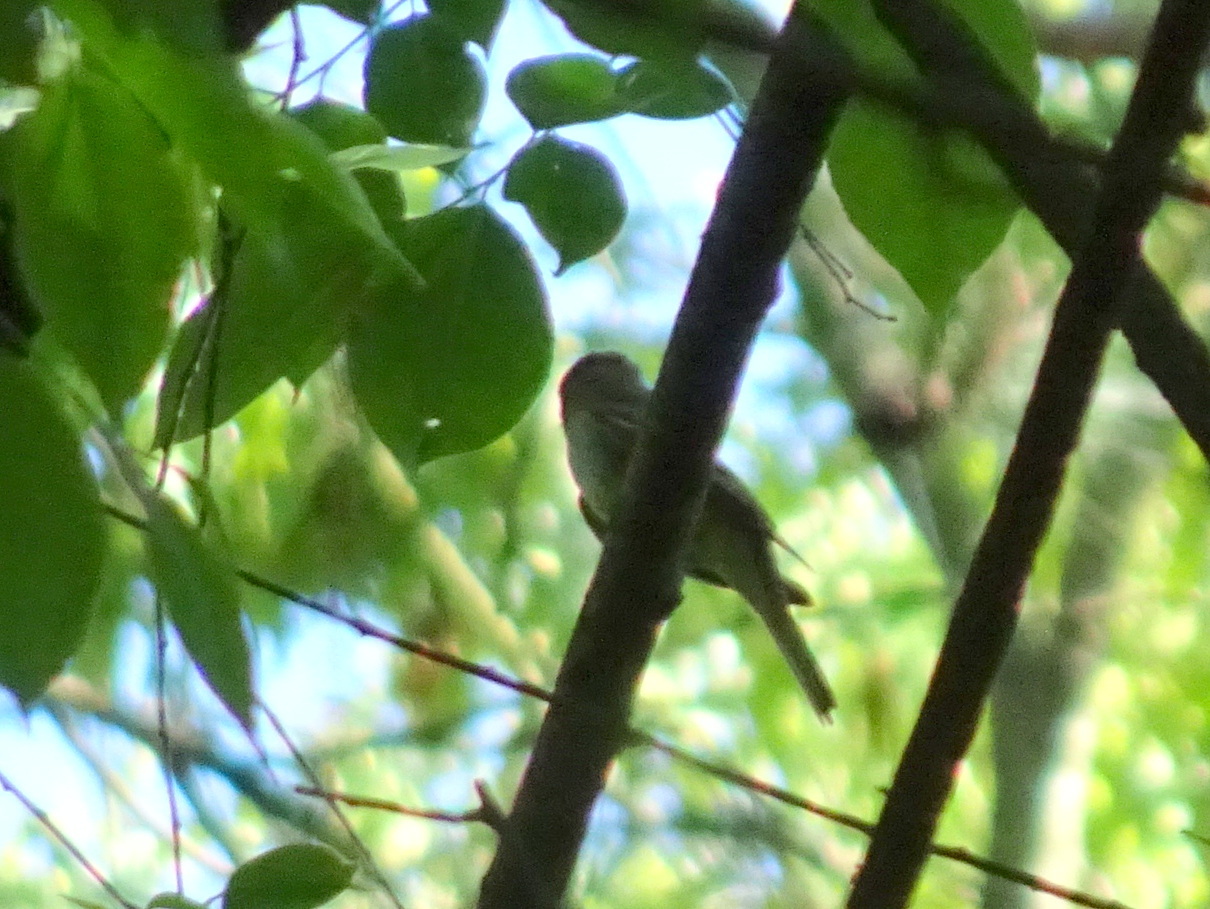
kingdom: Animalia
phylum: Chordata
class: Aves
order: Passeriformes
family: Tyrannidae
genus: Empidonax
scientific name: Empidonax minimus
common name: Least flycatcher
